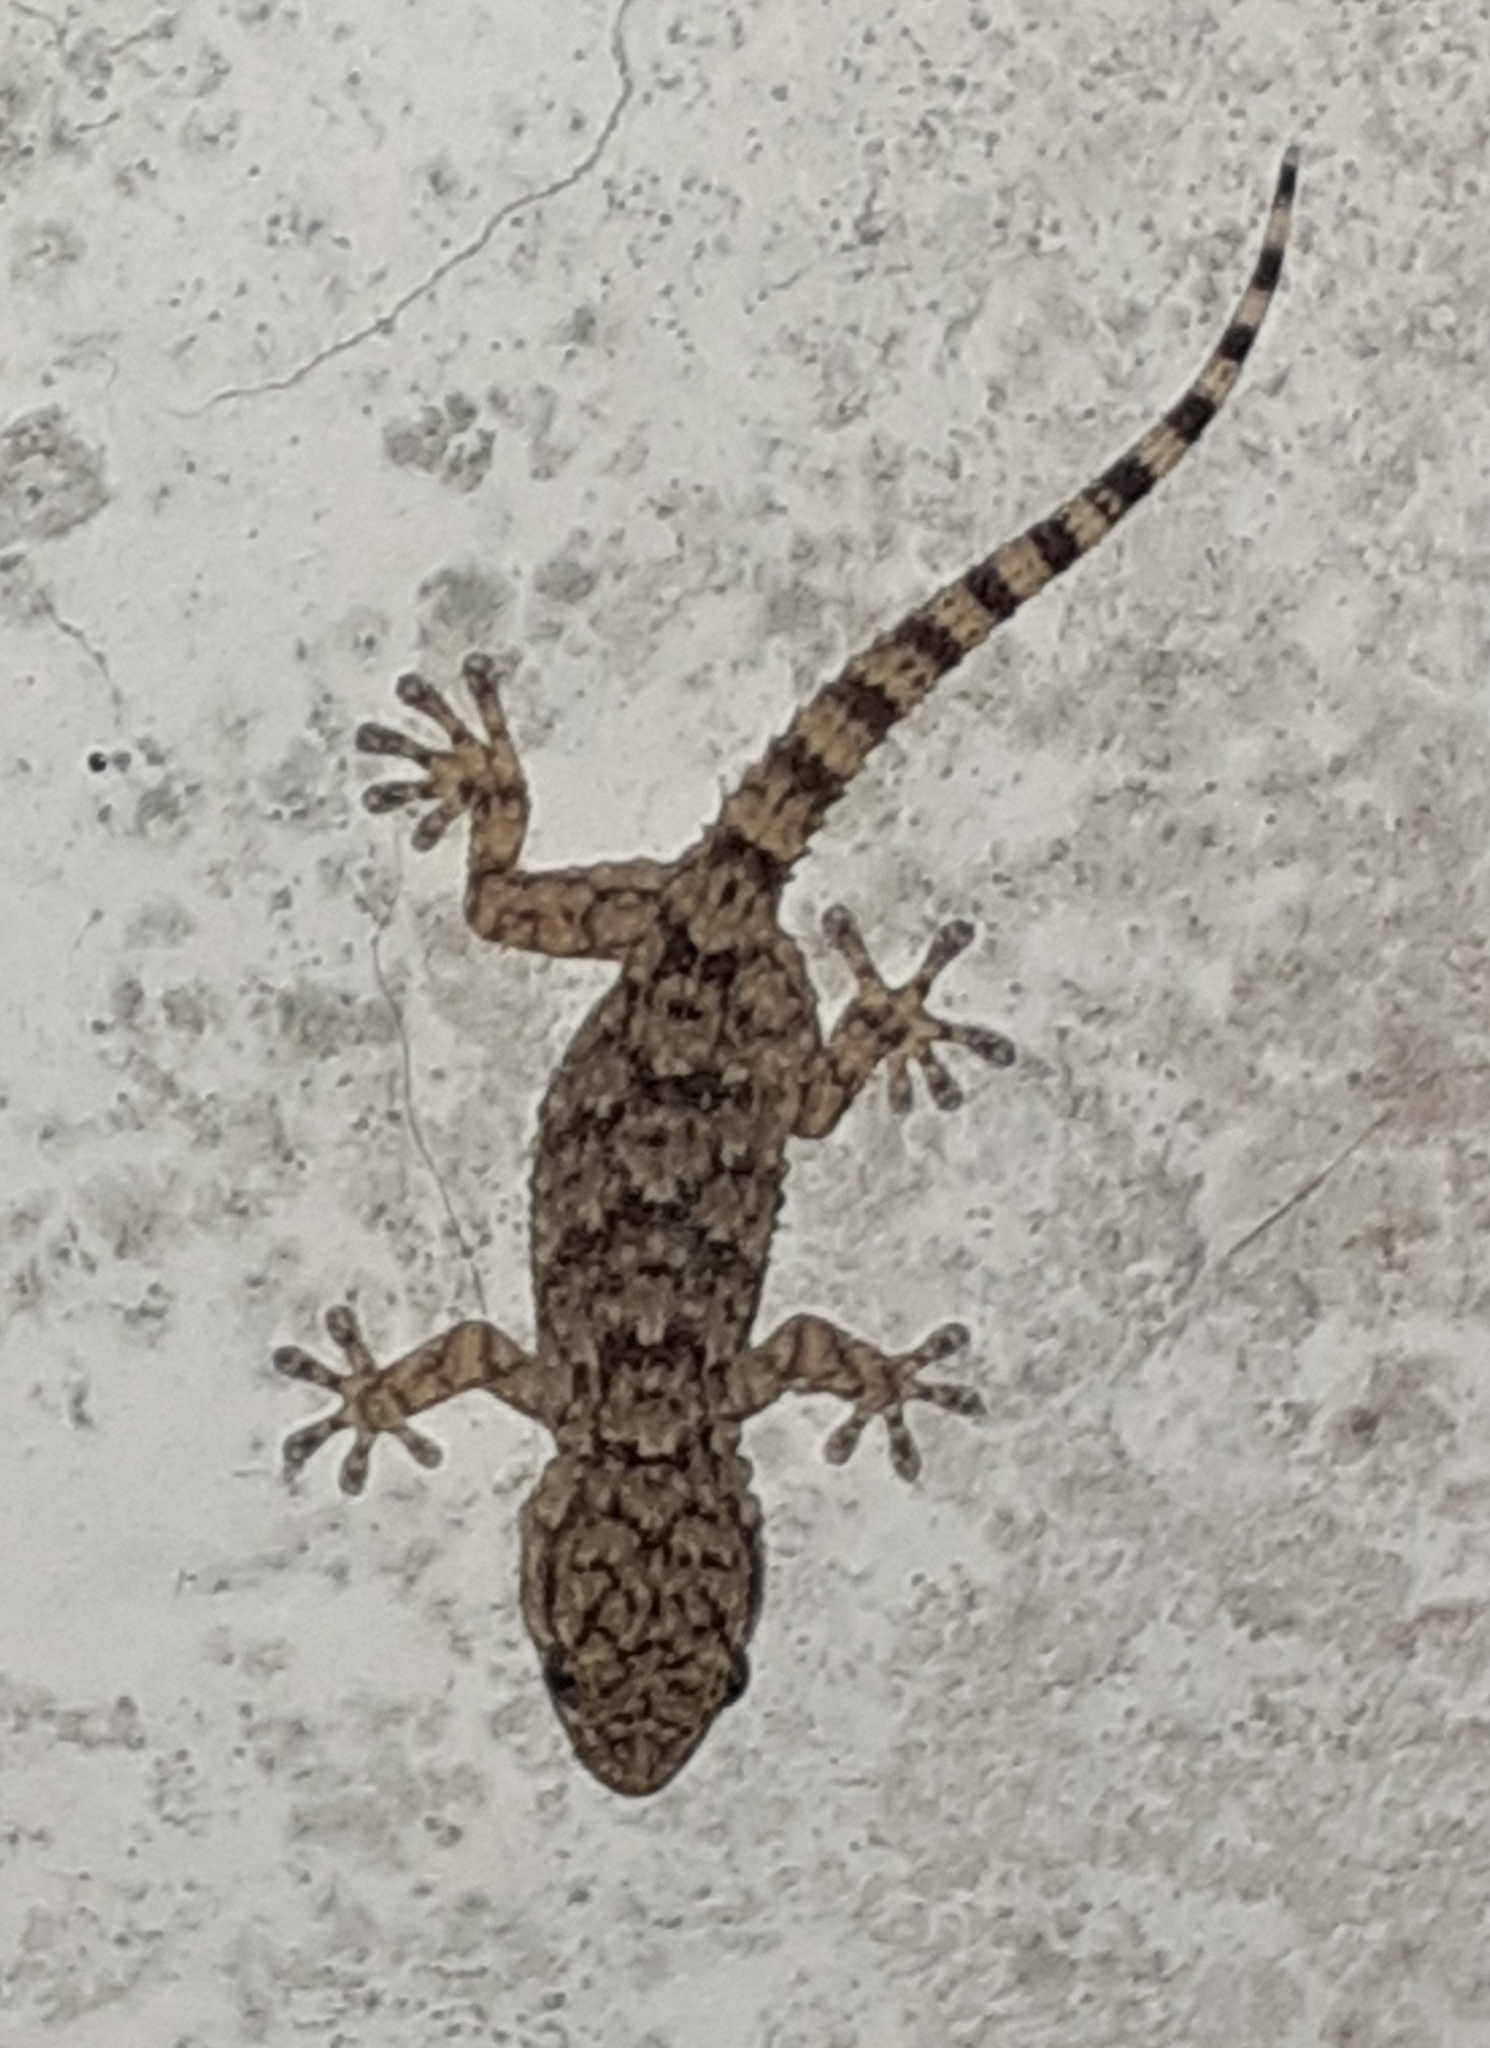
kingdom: Animalia
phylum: Chordata
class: Squamata
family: Phyllodactylidae
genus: Tarentola
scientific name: Tarentola mauritanica
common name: Moorish gecko
